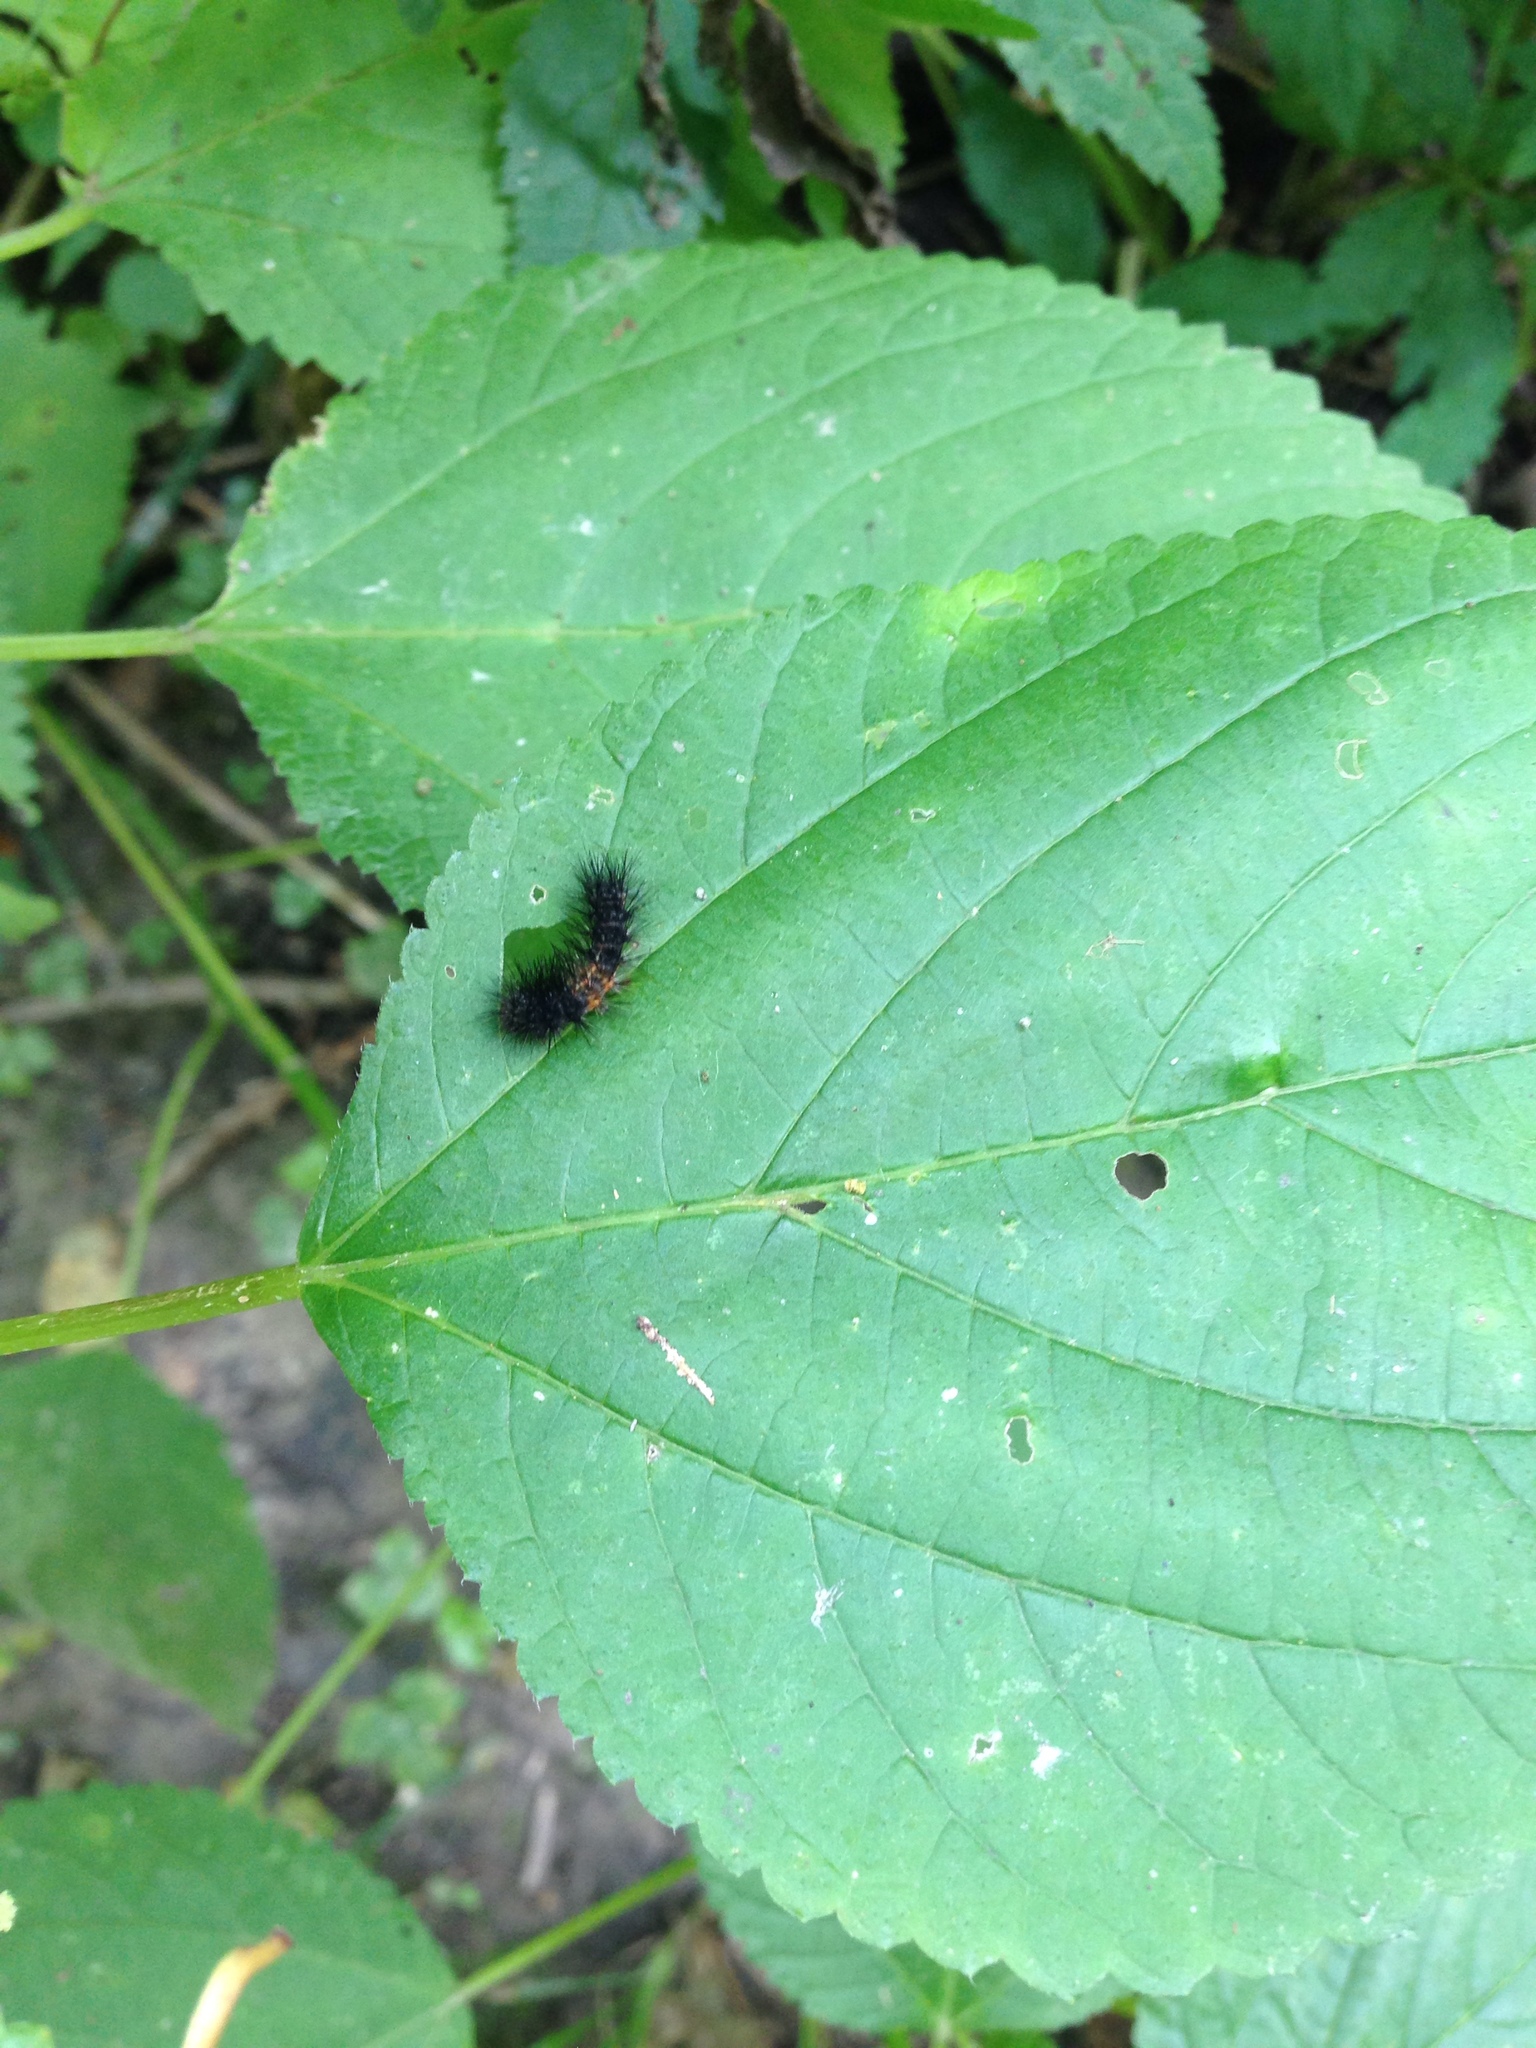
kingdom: Animalia
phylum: Arthropoda
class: Insecta
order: Lepidoptera
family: Erebidae
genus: Hypercompe
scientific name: Hypercompe scribonia
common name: Giant leopard moth
